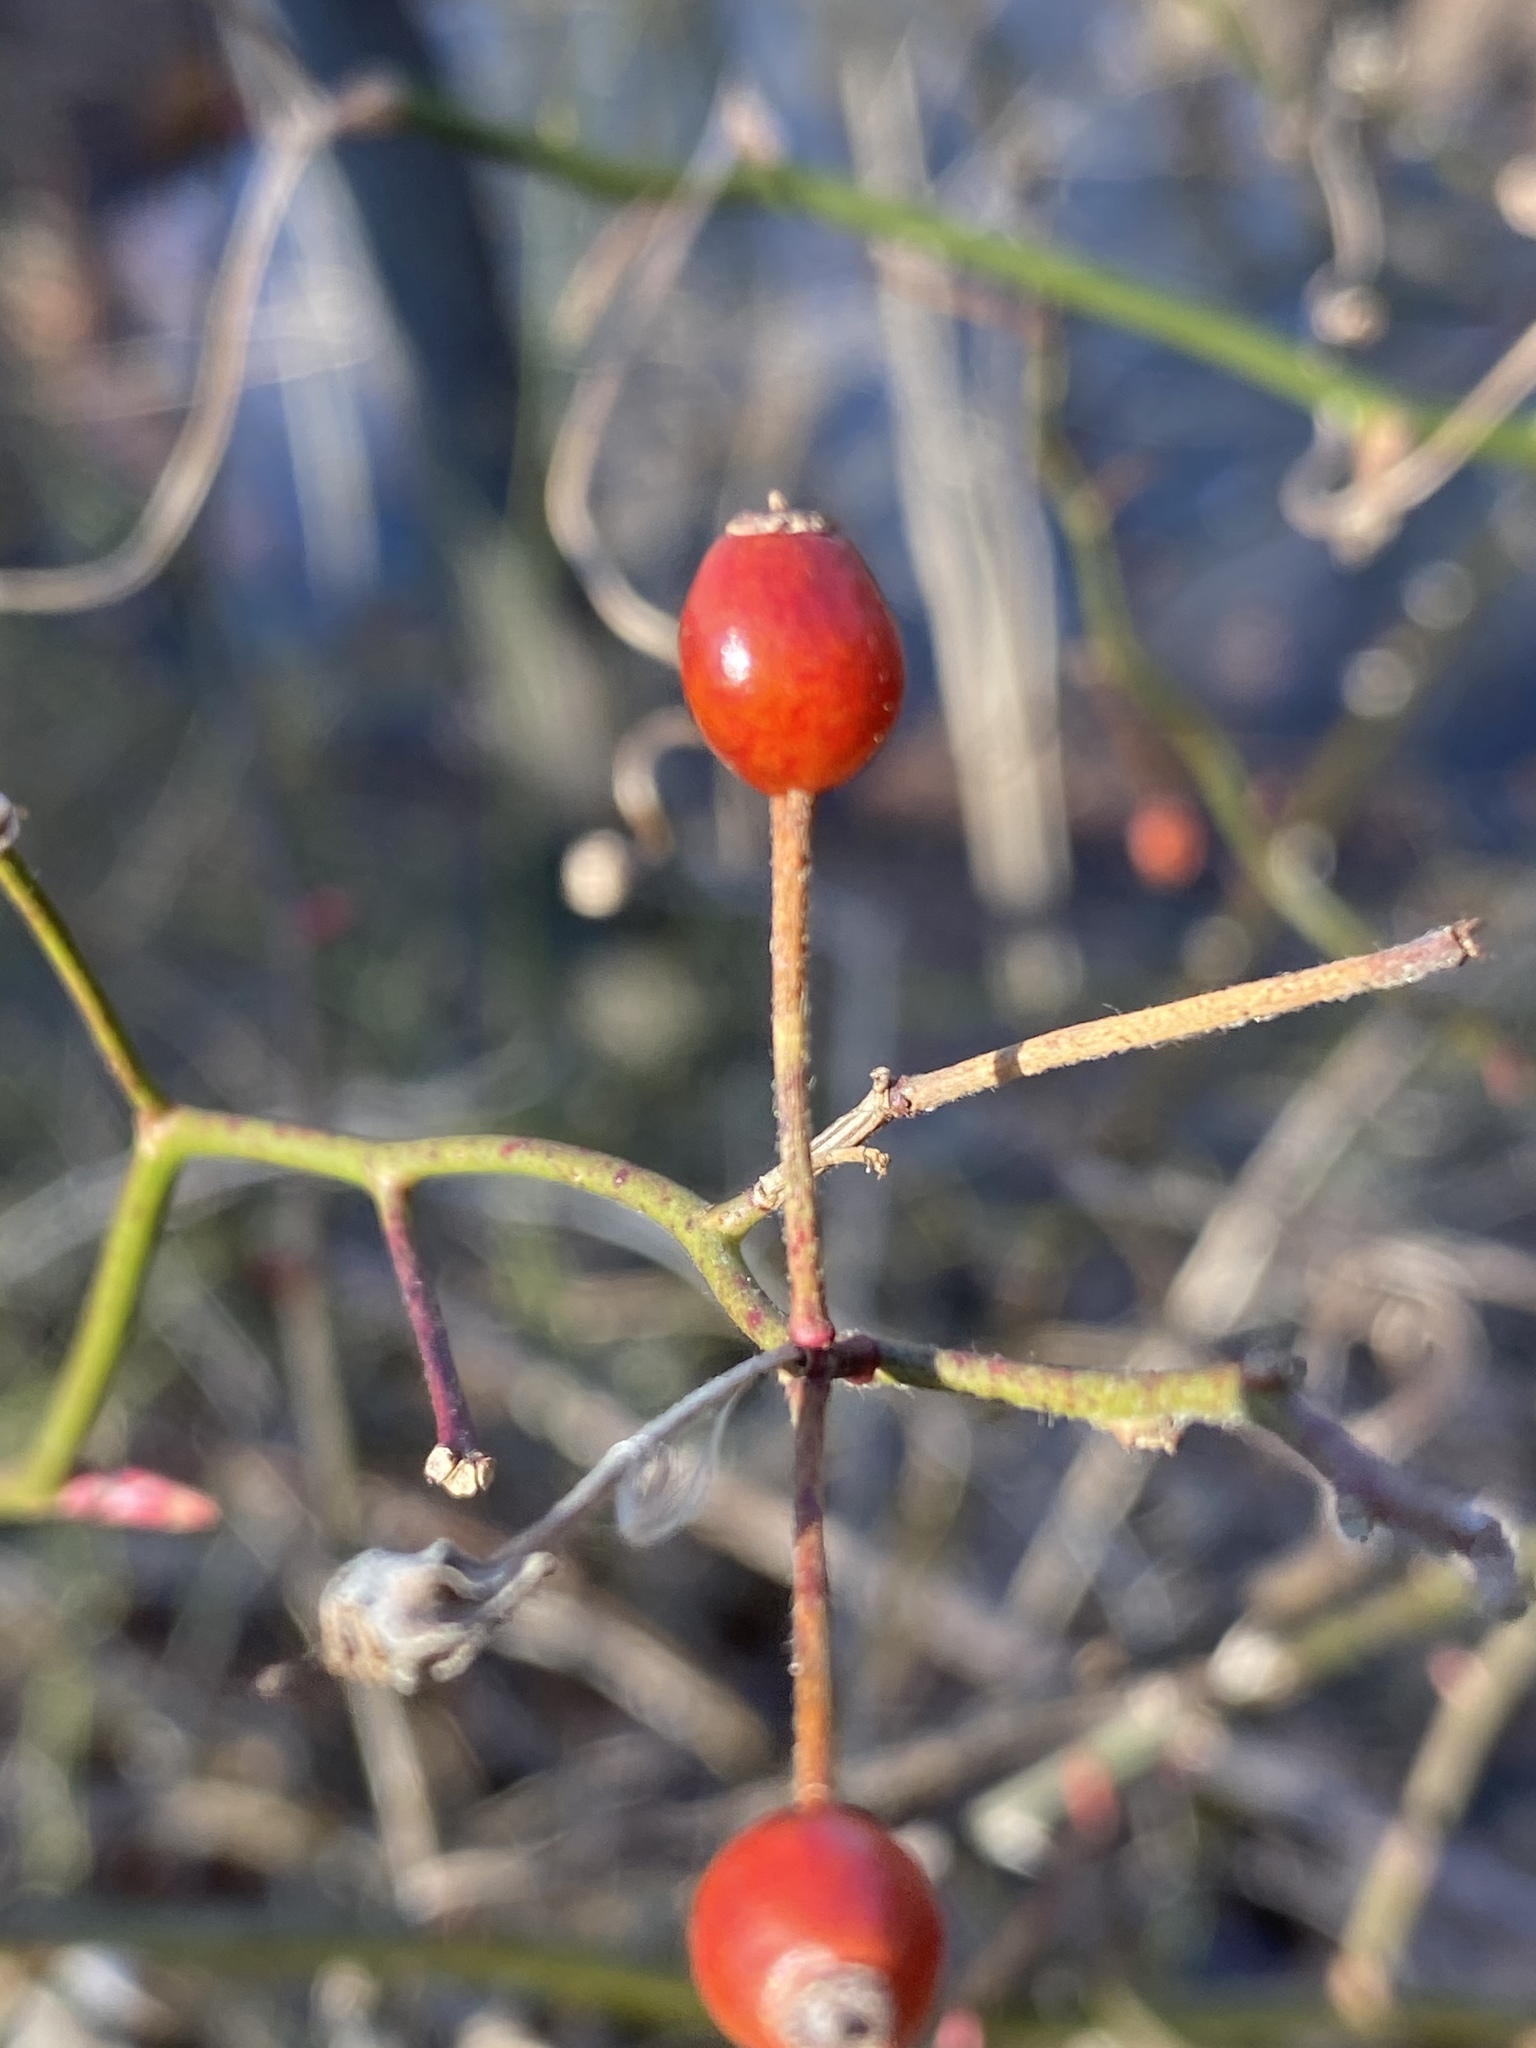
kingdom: Plantae
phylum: Tracheophyta
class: Magnoliopsida
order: Rosales
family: Rosaceae
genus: Rosa
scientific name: Rosa multiflora
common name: Multiflora rose
